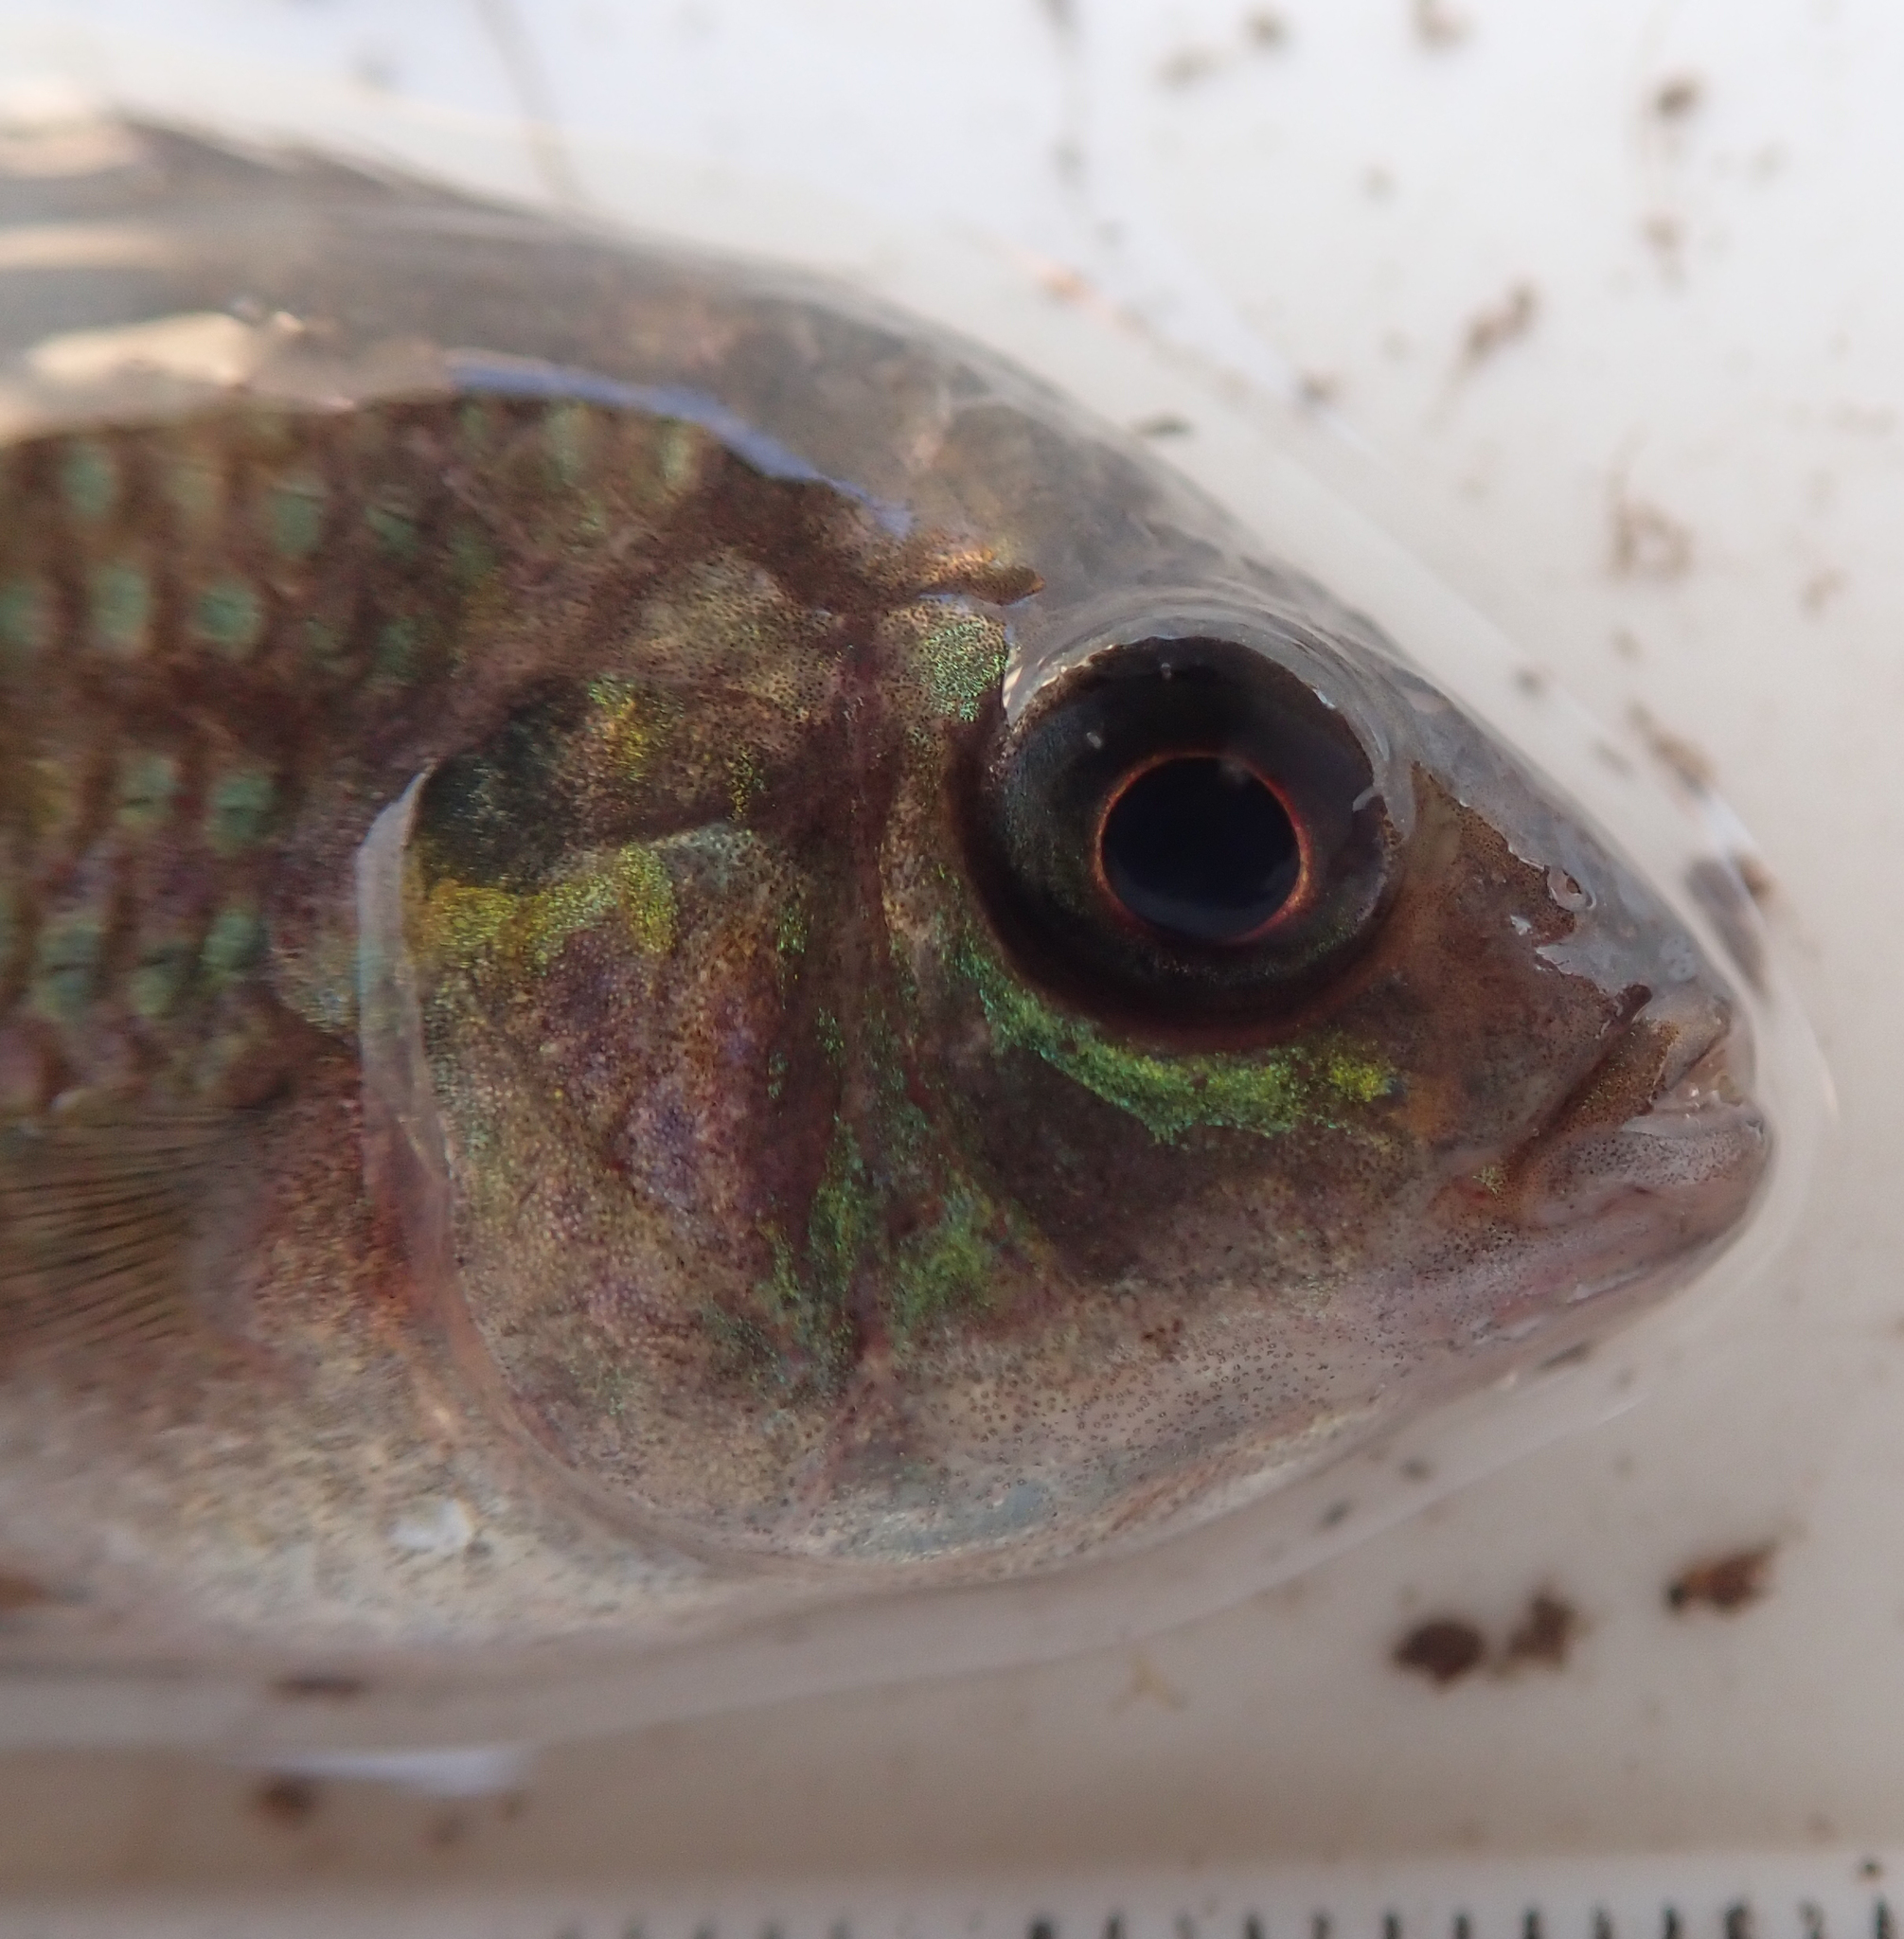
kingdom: Animalia
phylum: Chordata
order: Perciformes
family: Cichlidae
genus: Tilapia
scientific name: Tilapia sparrmanii
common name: Banded tilapia
